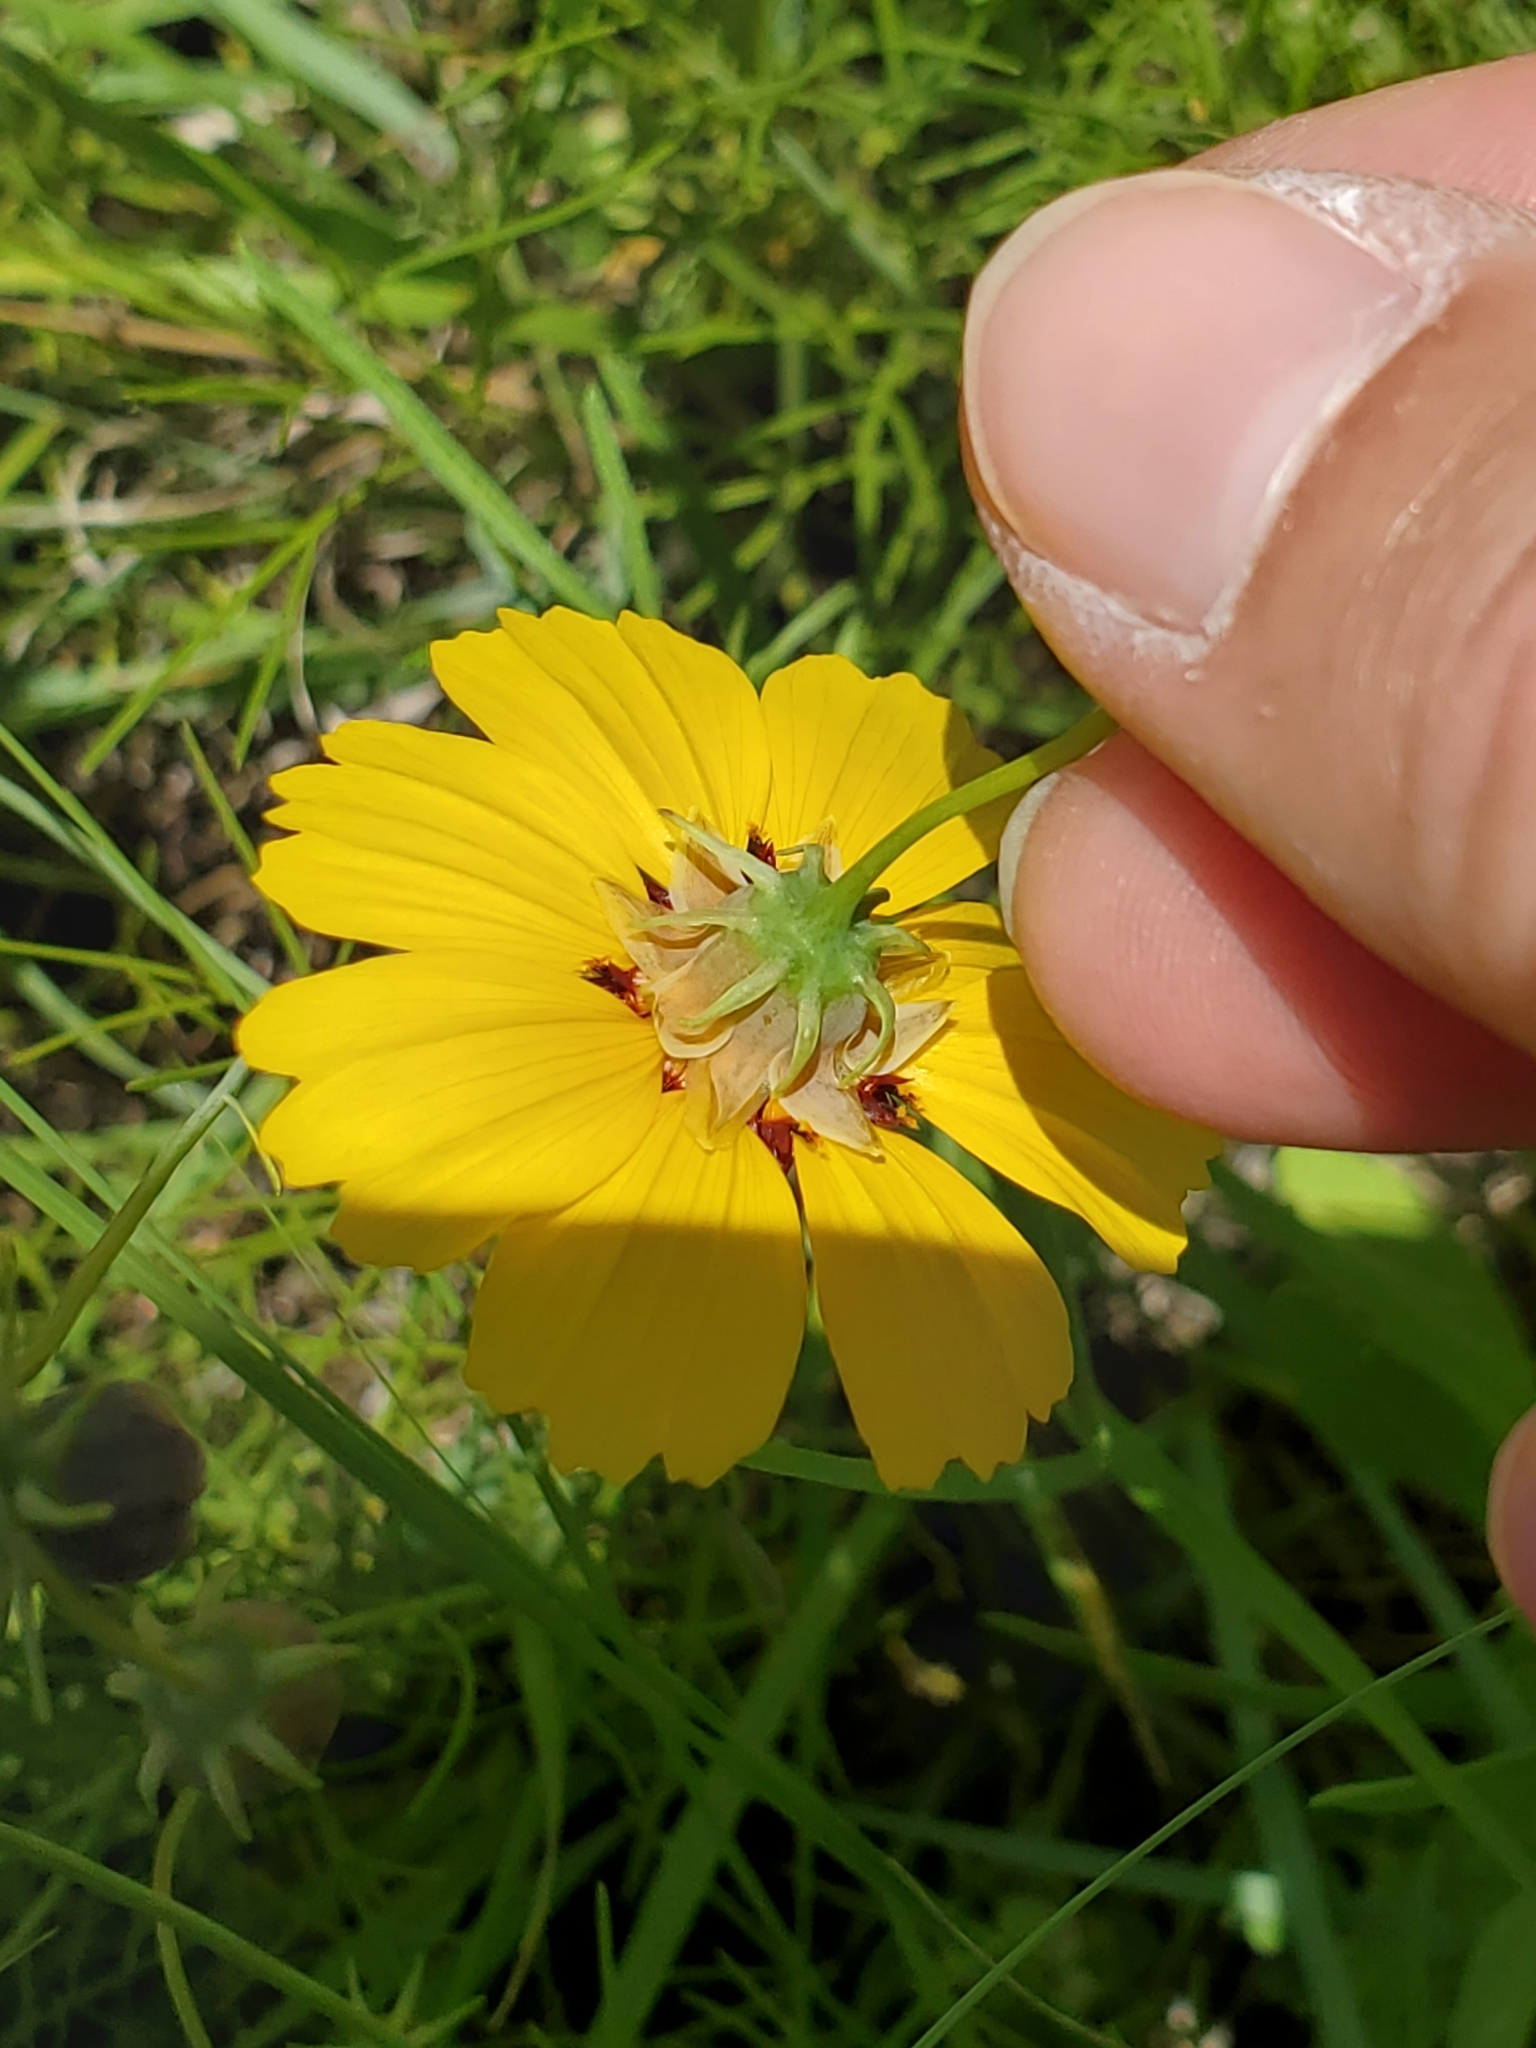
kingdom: Plantae
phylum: Tracheophyta
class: Magnoliopsida
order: Asterales
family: Asteraceae
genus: Thelesperma
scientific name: Thelesperma filifolium
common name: Stiff greenthread
